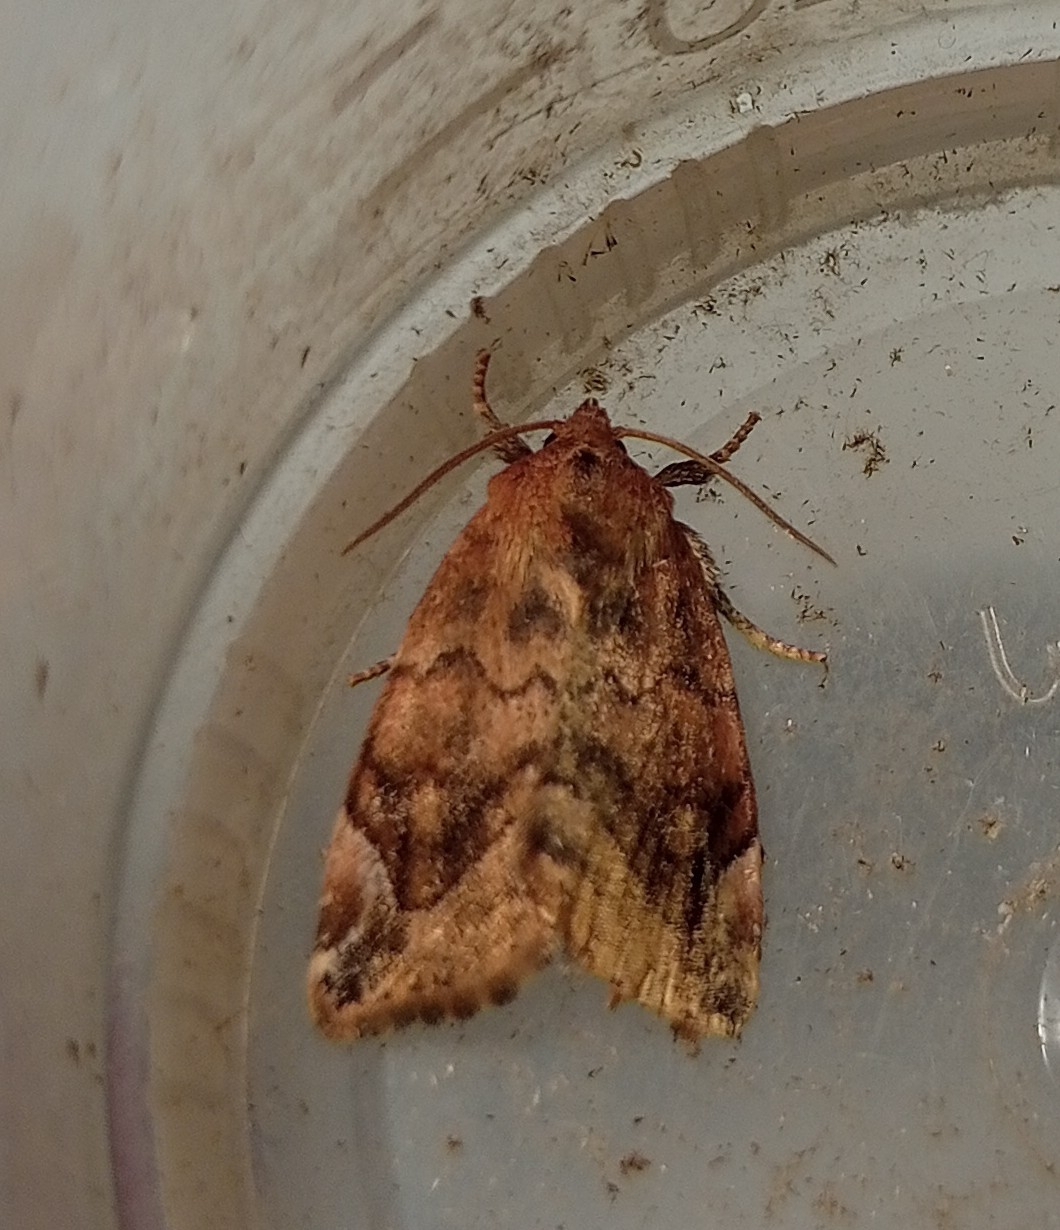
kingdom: Animalia
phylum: Arthropoda
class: Insecta
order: Lepidoptera
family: Noctuidae
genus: Cosmia
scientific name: Cosmia pyralina
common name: Lunar-spotted pinion
